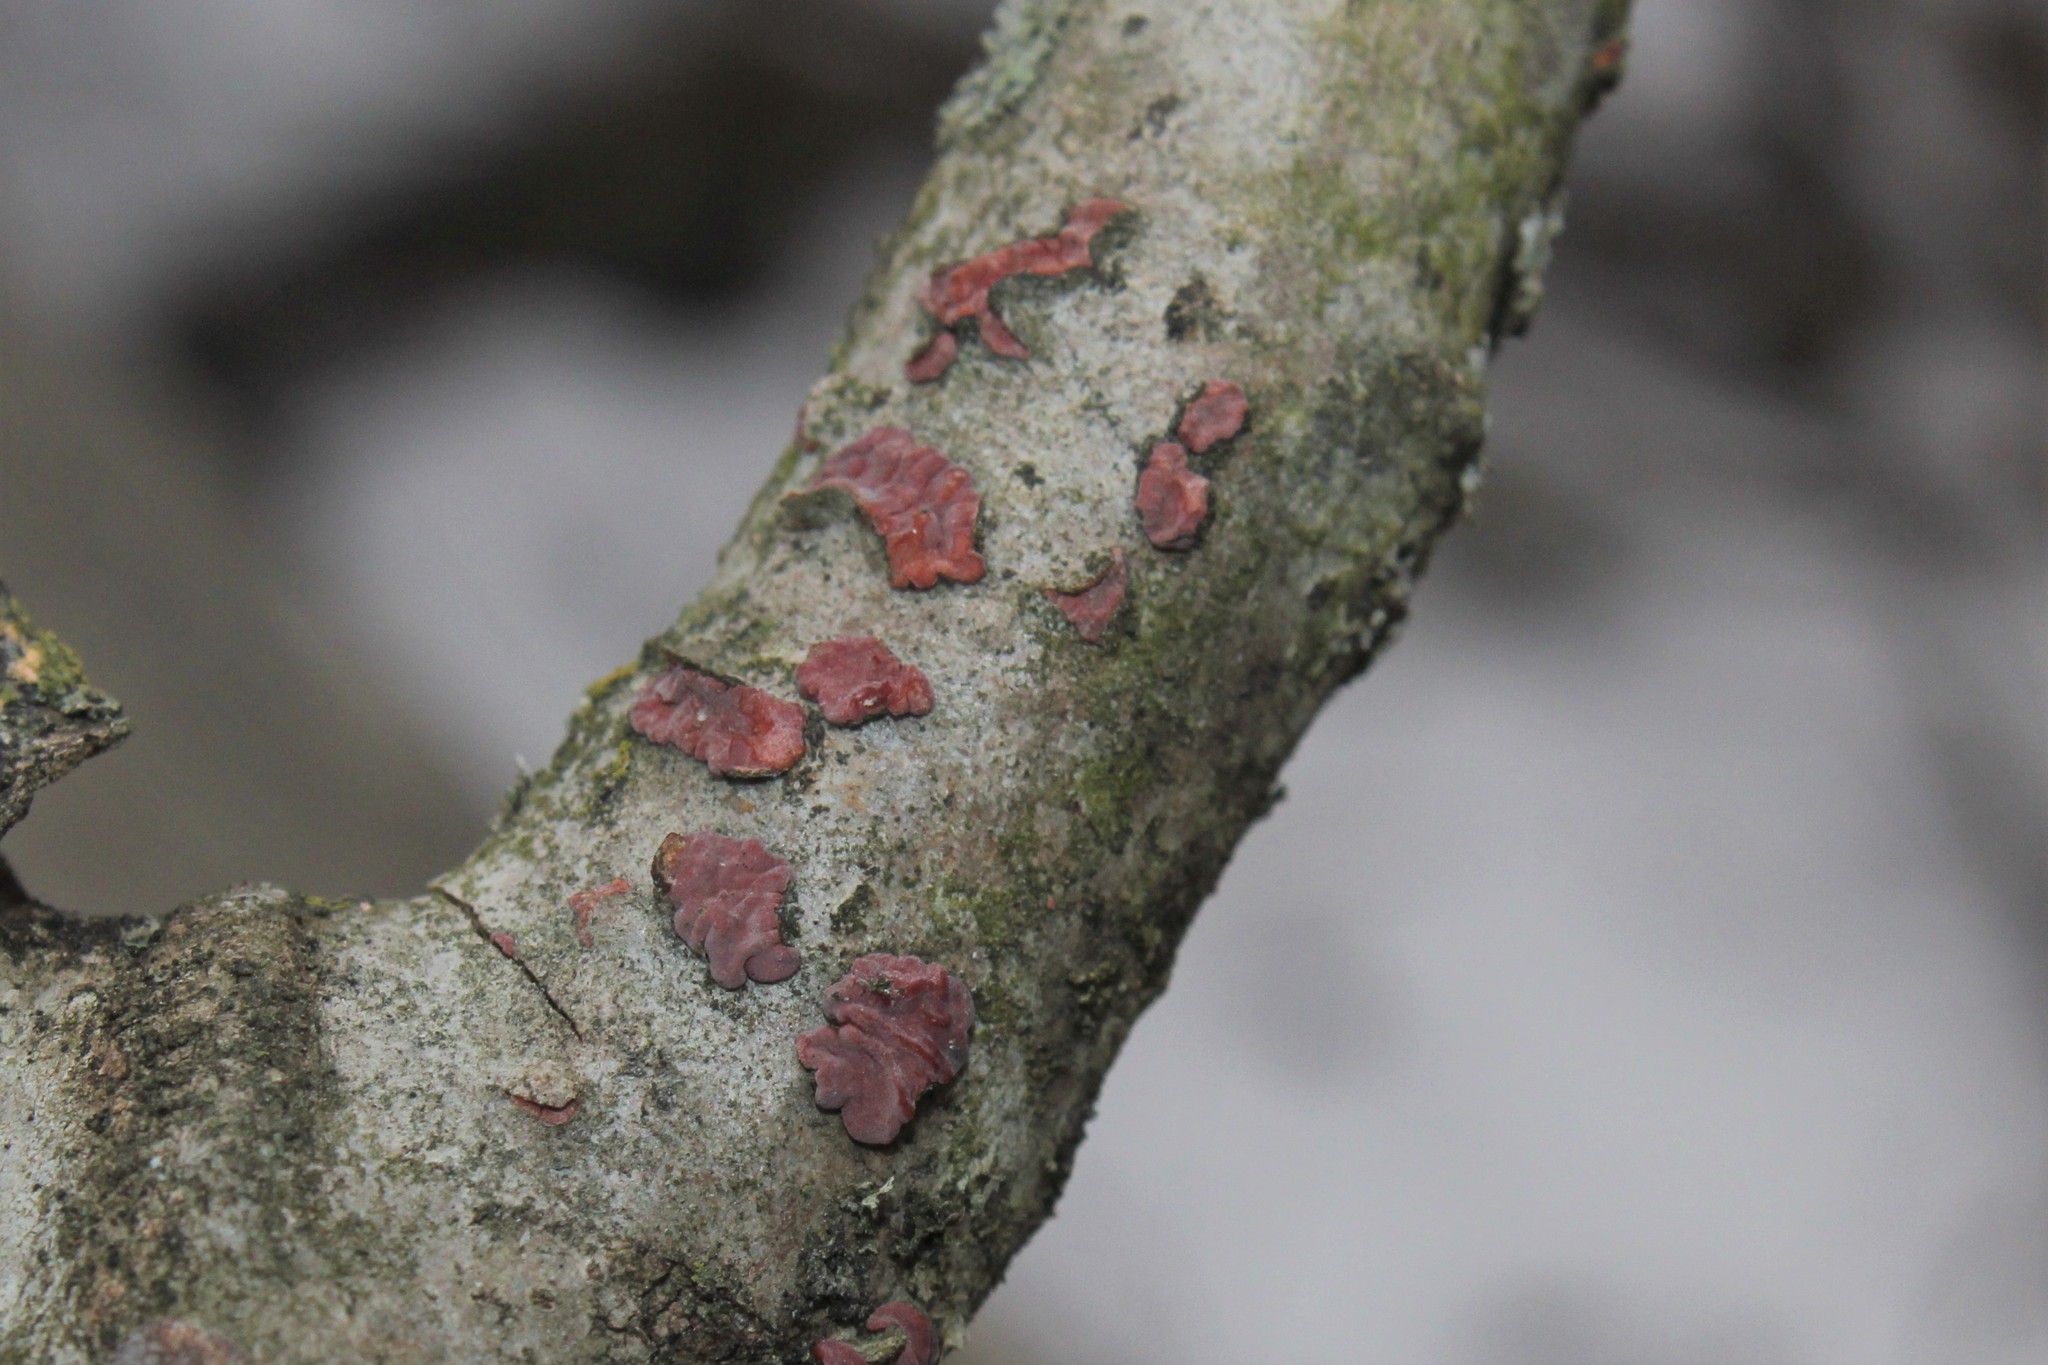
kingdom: Fungi
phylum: Basidiomycota
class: Agaricomycetes
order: Russulales
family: Peniophoraceae
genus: Peniophora
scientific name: Peniophora rufa
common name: Red tree brain fungus
